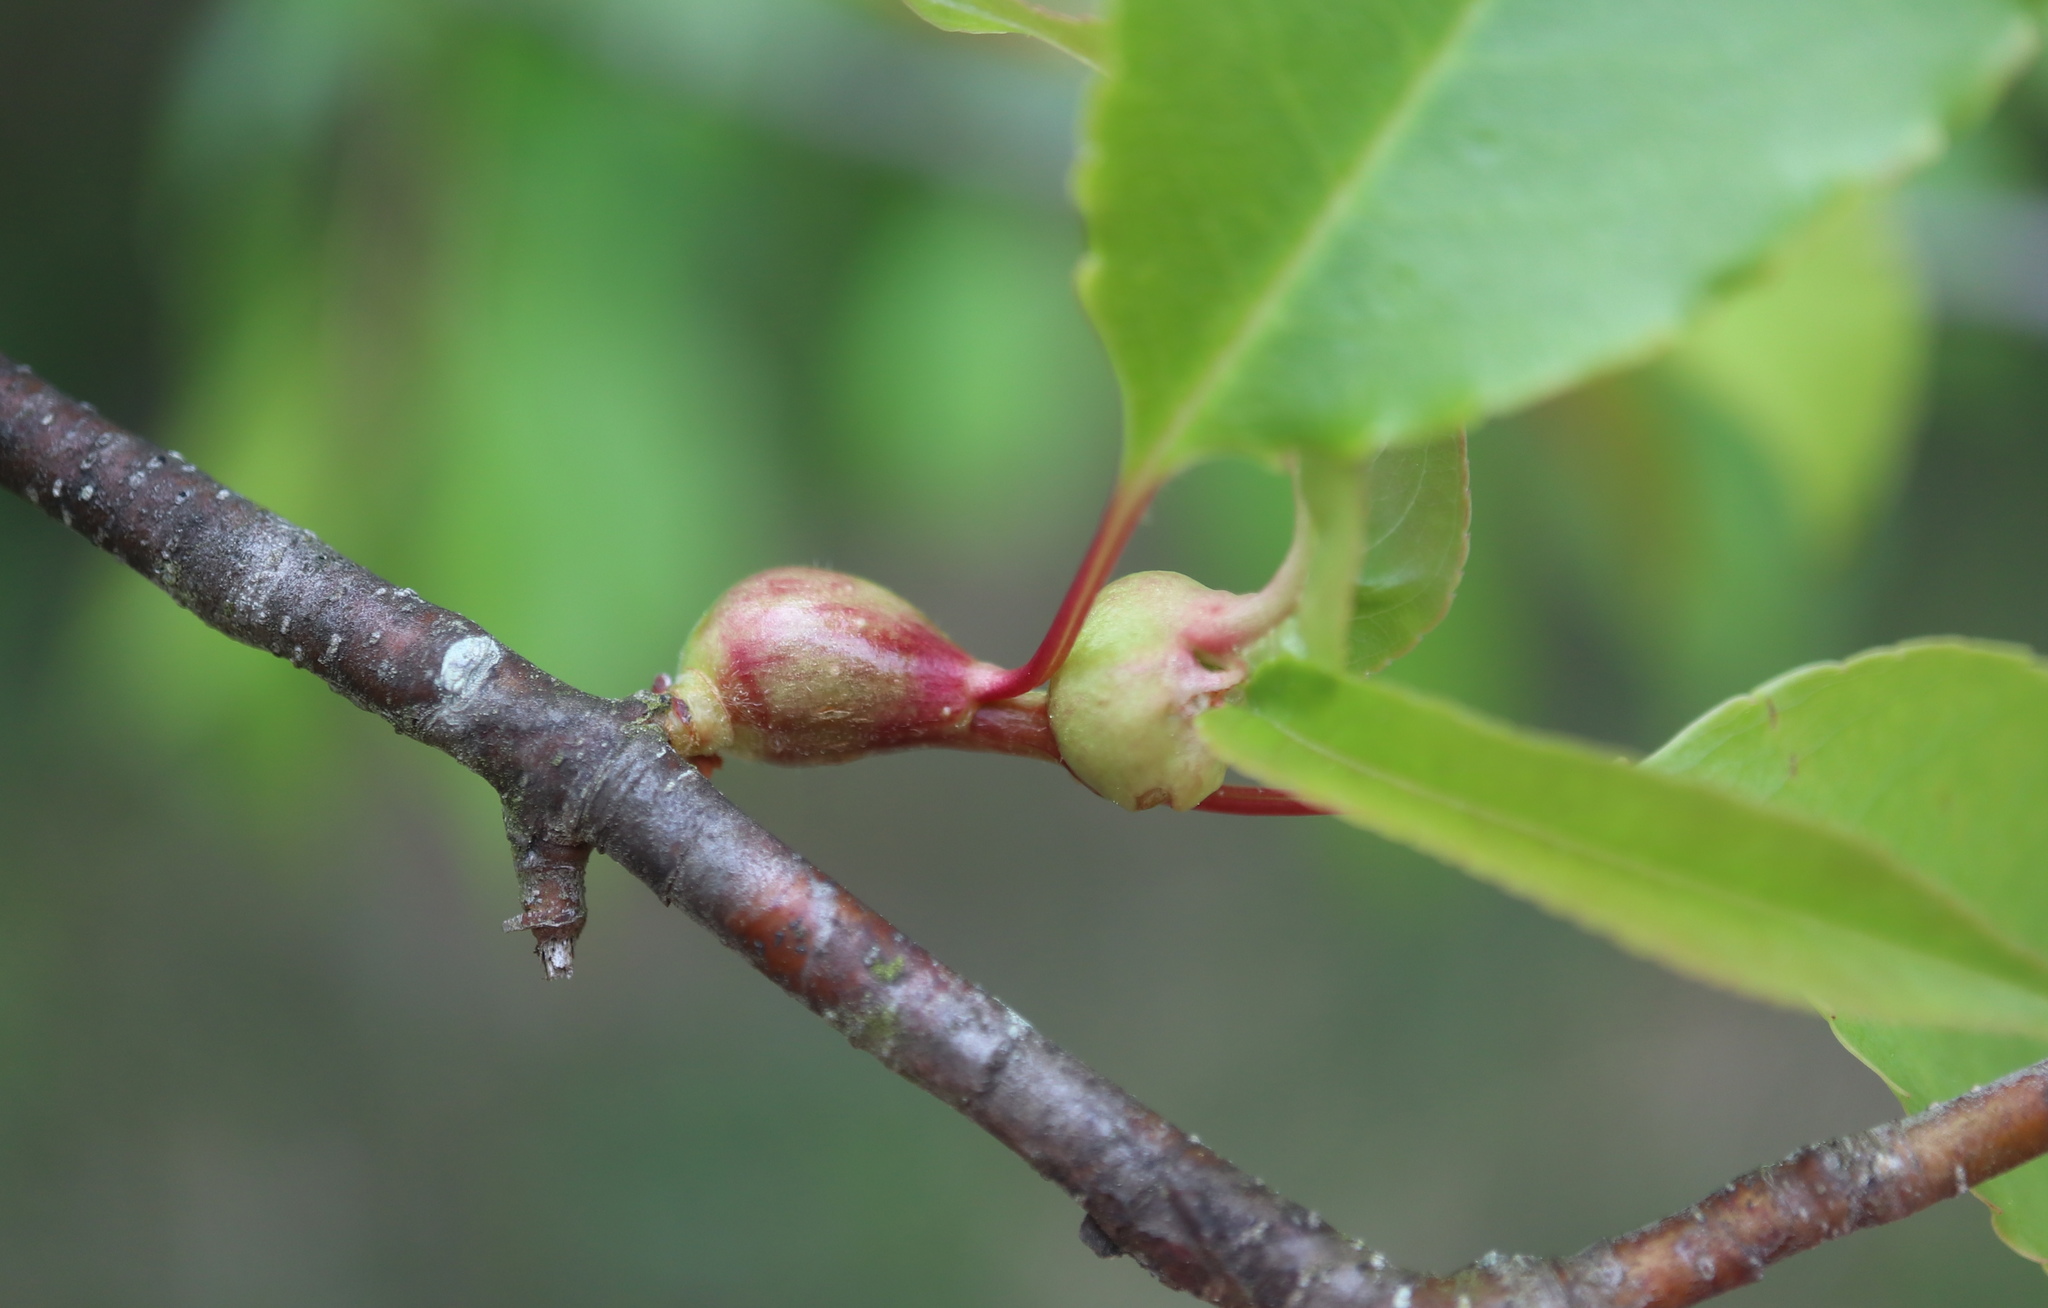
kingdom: Animalia
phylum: Arthropoda
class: Insecta
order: Diptera
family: Cecidomyiidae
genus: Contarinia
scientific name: Contarinia cerasiserotinae
